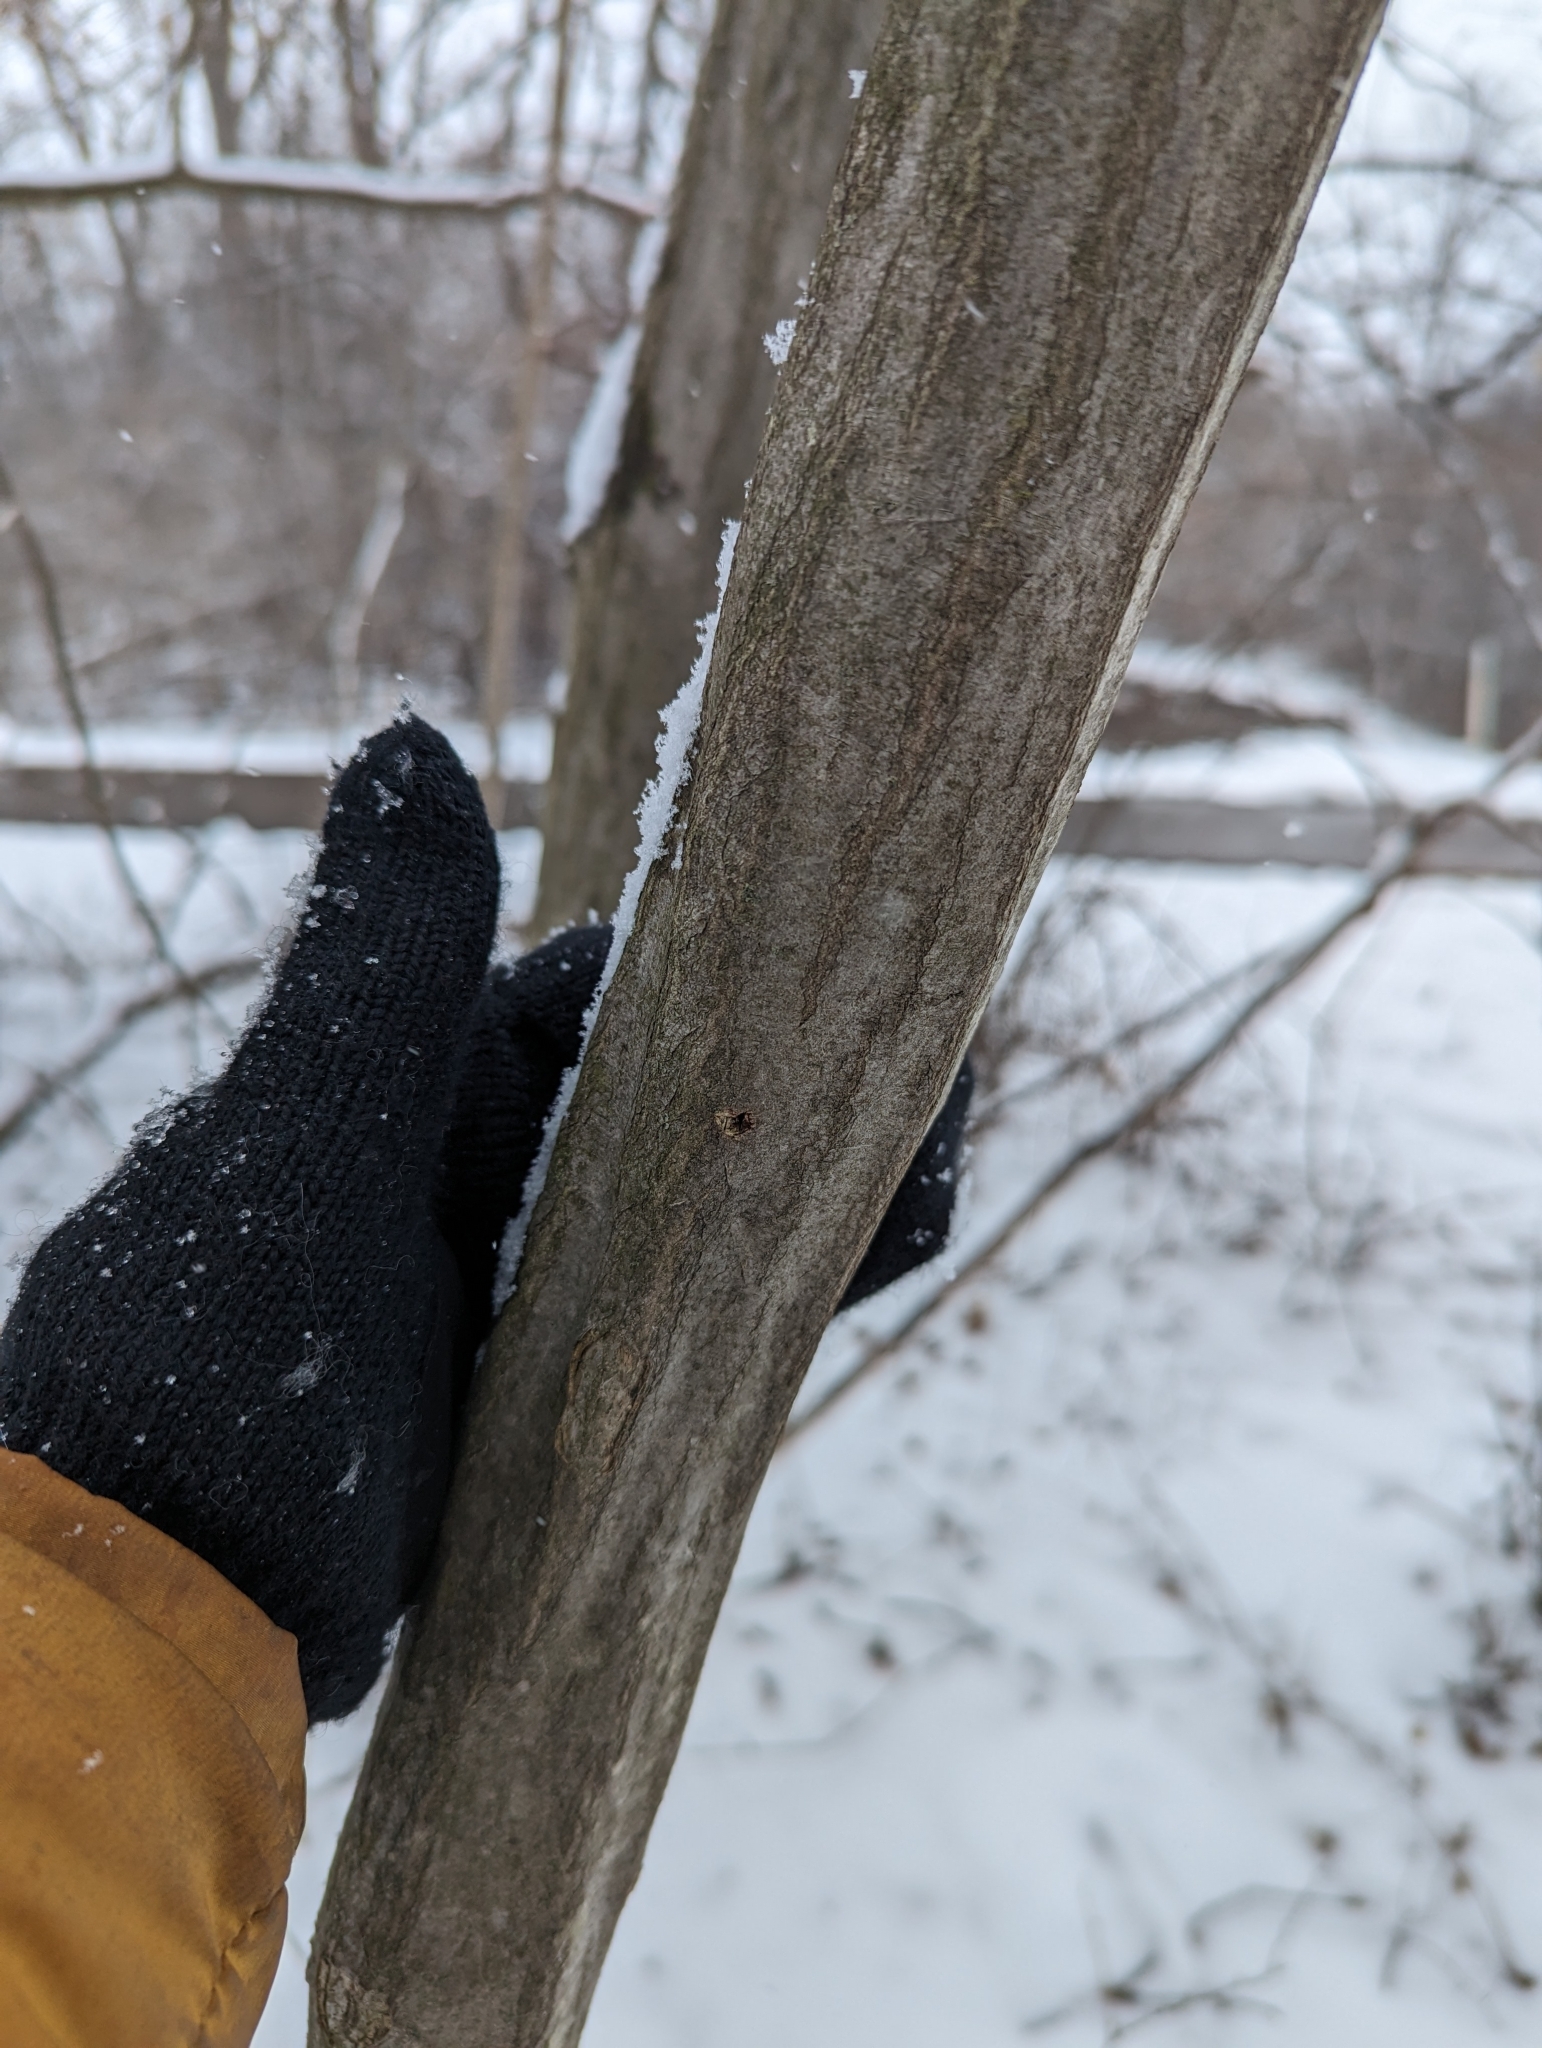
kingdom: Plantae
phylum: Tracheophyta
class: Magnoliopsida
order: Fagales
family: Betulaceae
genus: Carpinus
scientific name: Carpinus caroliniana
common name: American hornbeam
